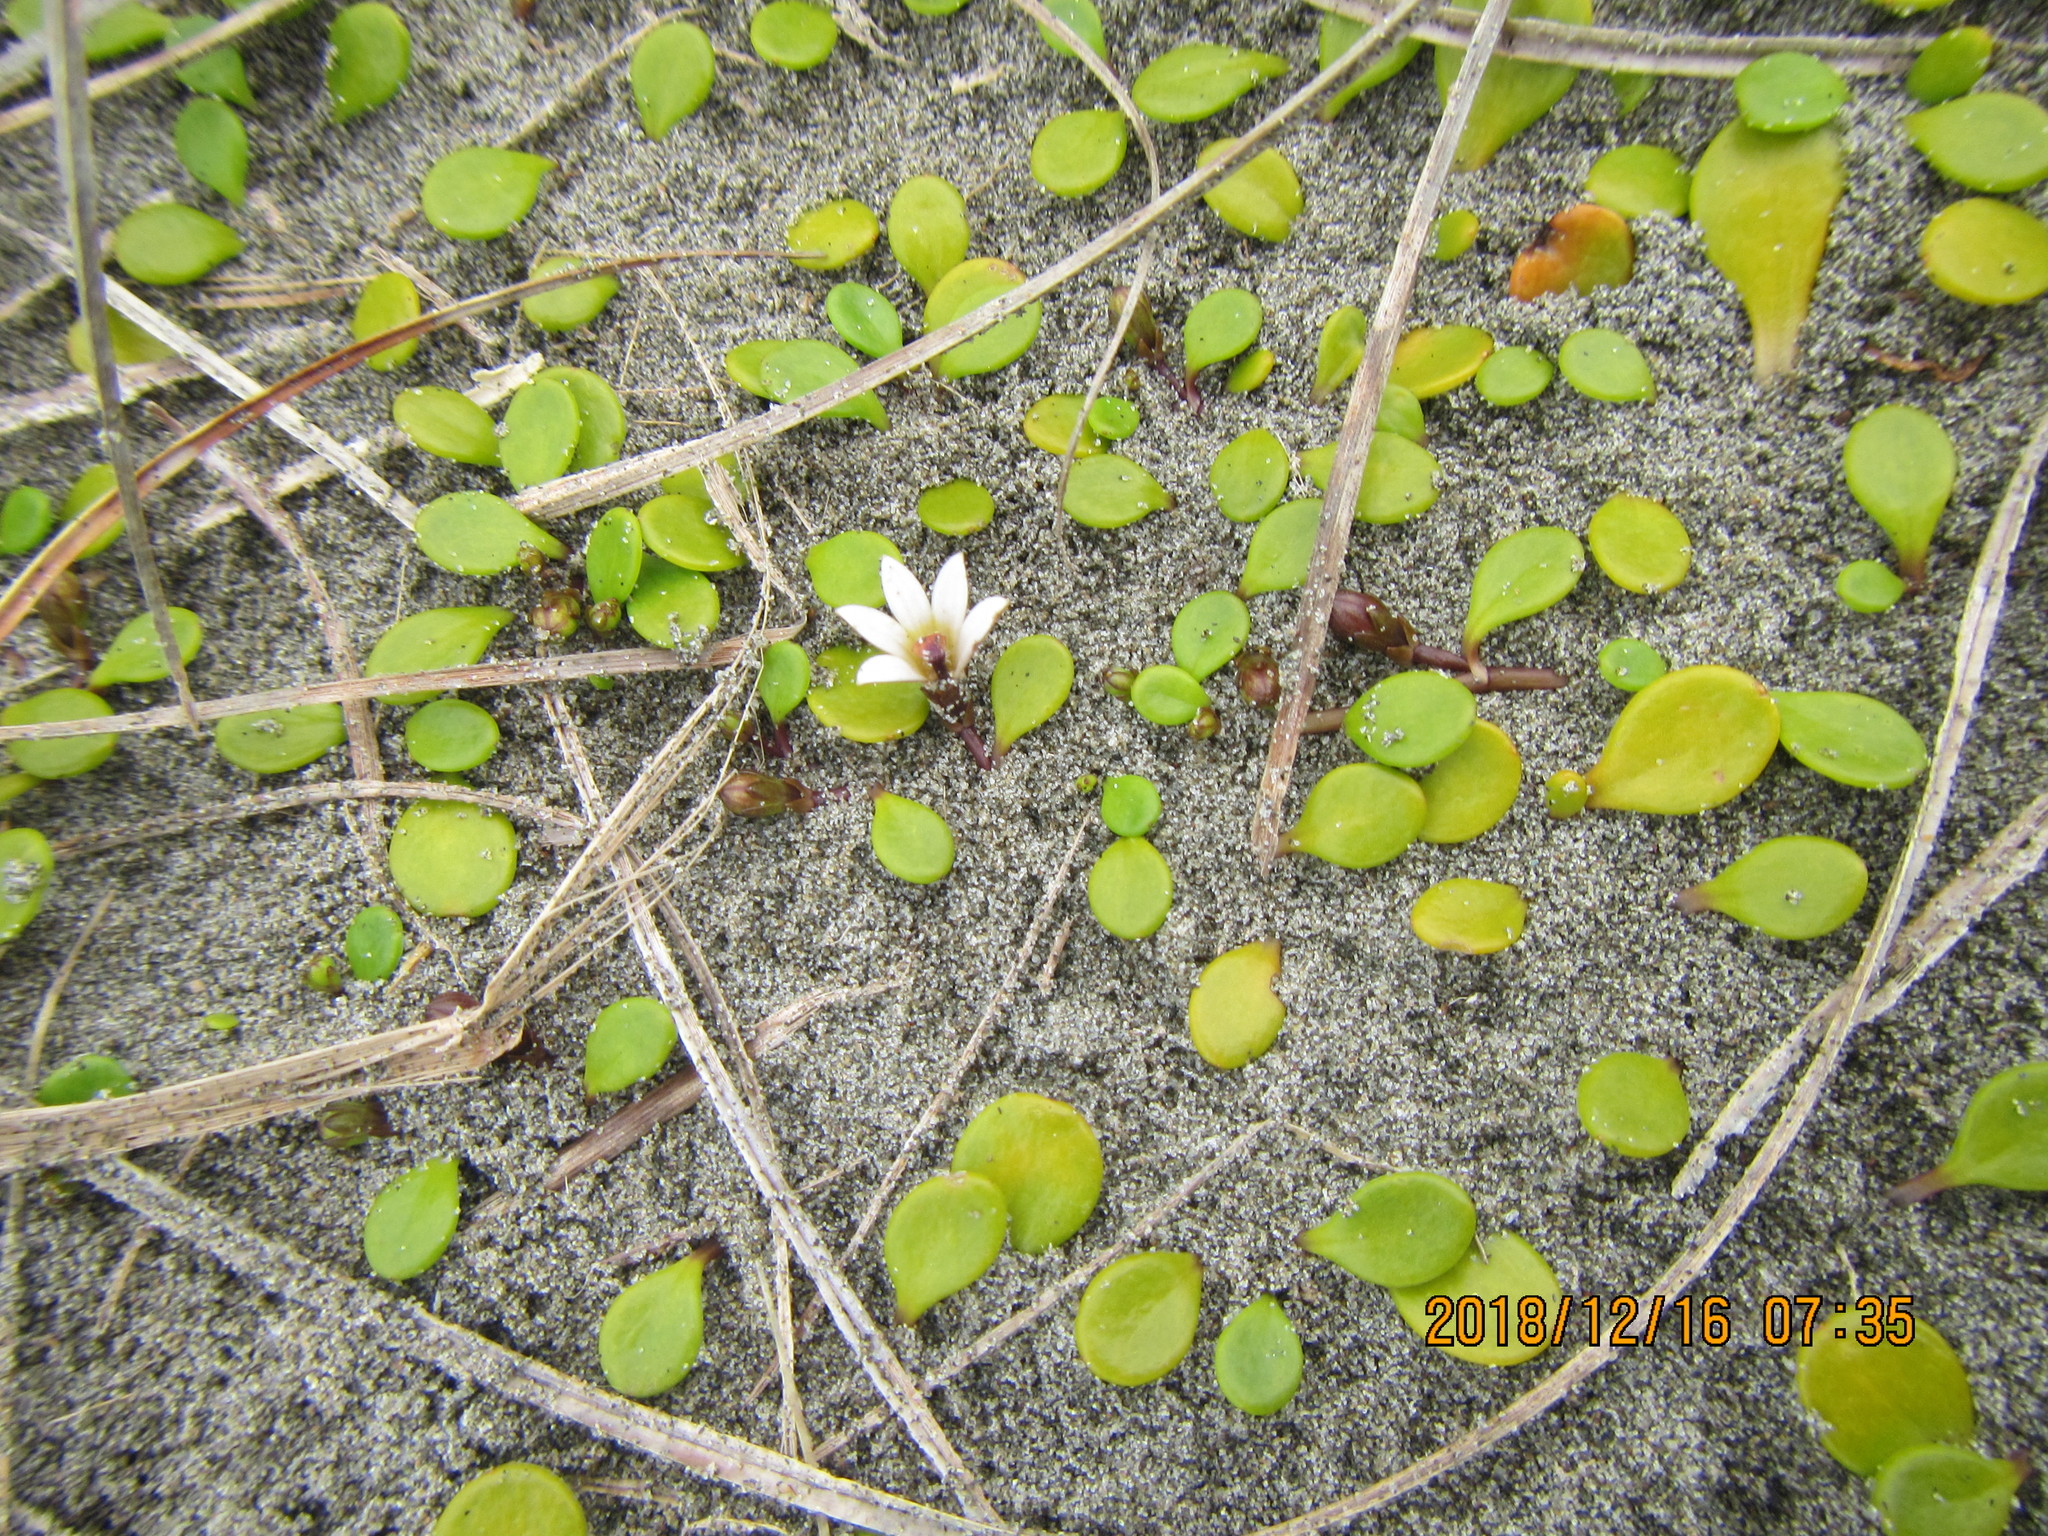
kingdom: Plantae
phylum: Tracheophyta
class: Magnoliopsida
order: Asterales
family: Goodeniaceae
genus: Goodenia
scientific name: Goodenia heenanii
